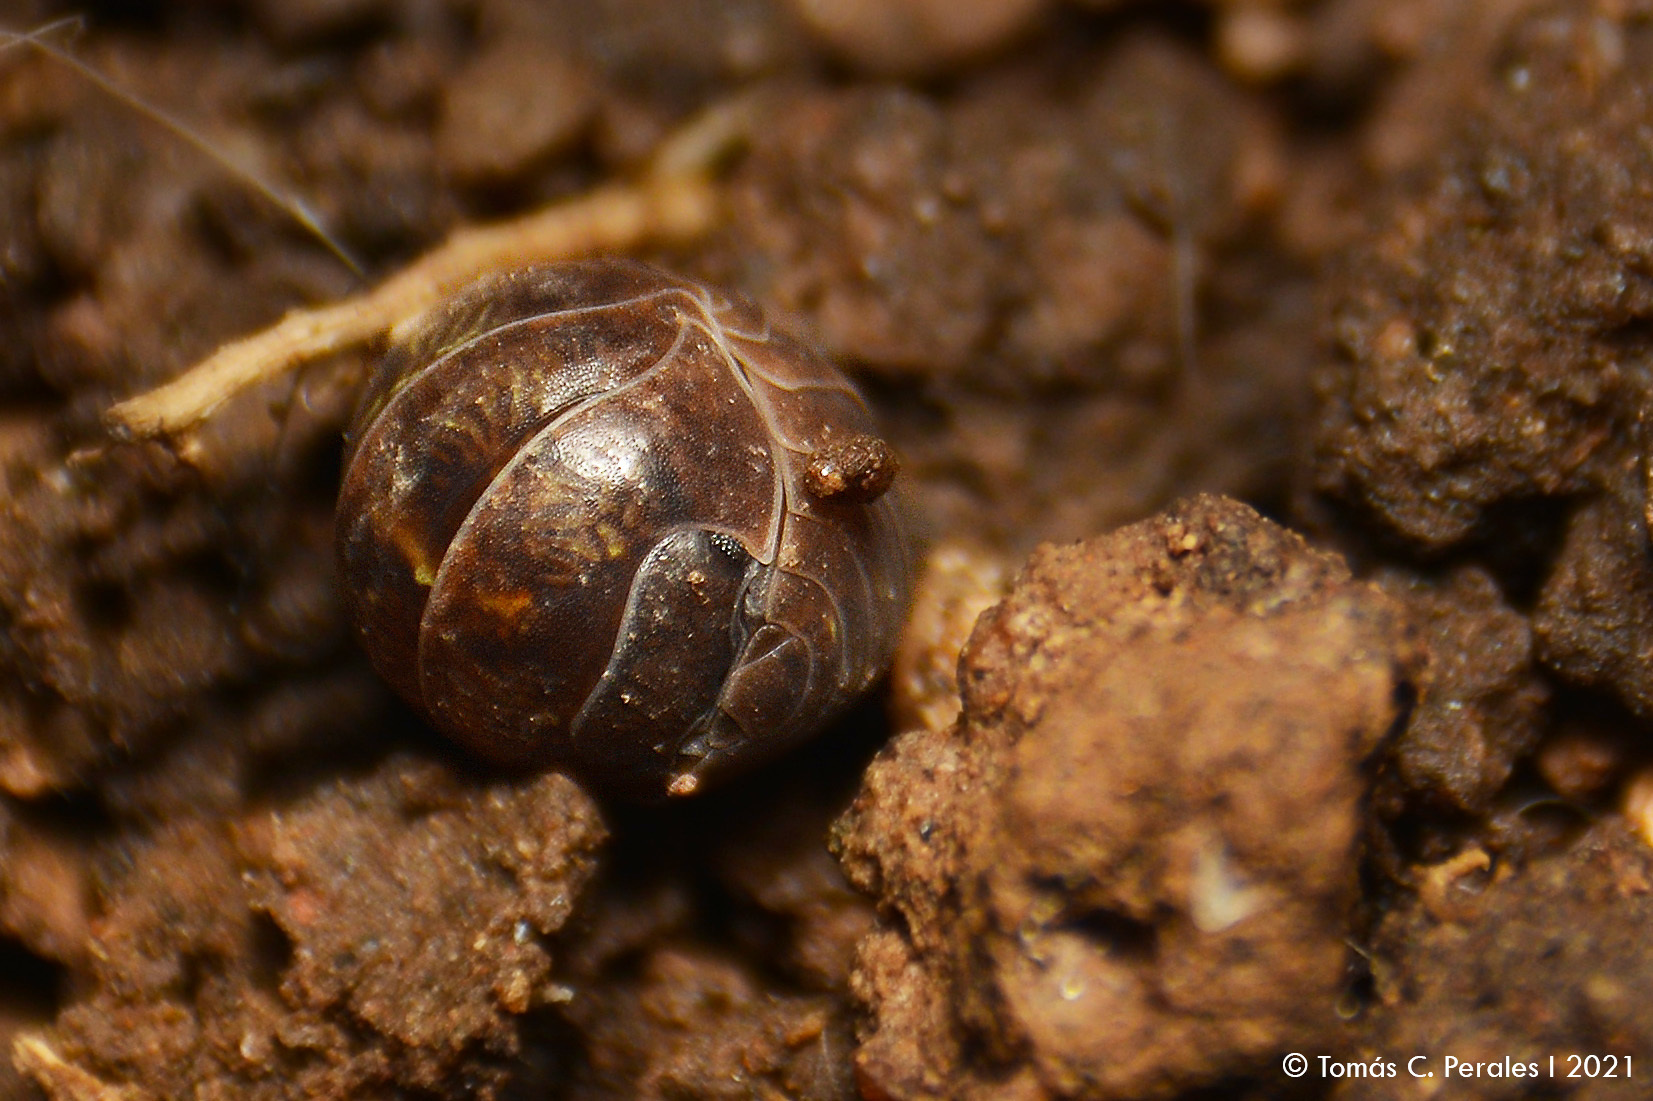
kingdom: Animalia
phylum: Arthropoda
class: Malacostraca
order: Isopoda
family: Armadillidiidae
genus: Armadillidium
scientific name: Armadillidium vulgare
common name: Common pill woodlouse
